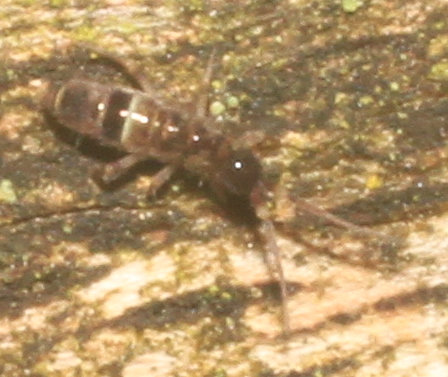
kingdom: Animalia
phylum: Arthropoda
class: Collembola
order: Entomobryomorpha
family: Orchesellidae
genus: Orchesella
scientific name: Orchesella cincta
